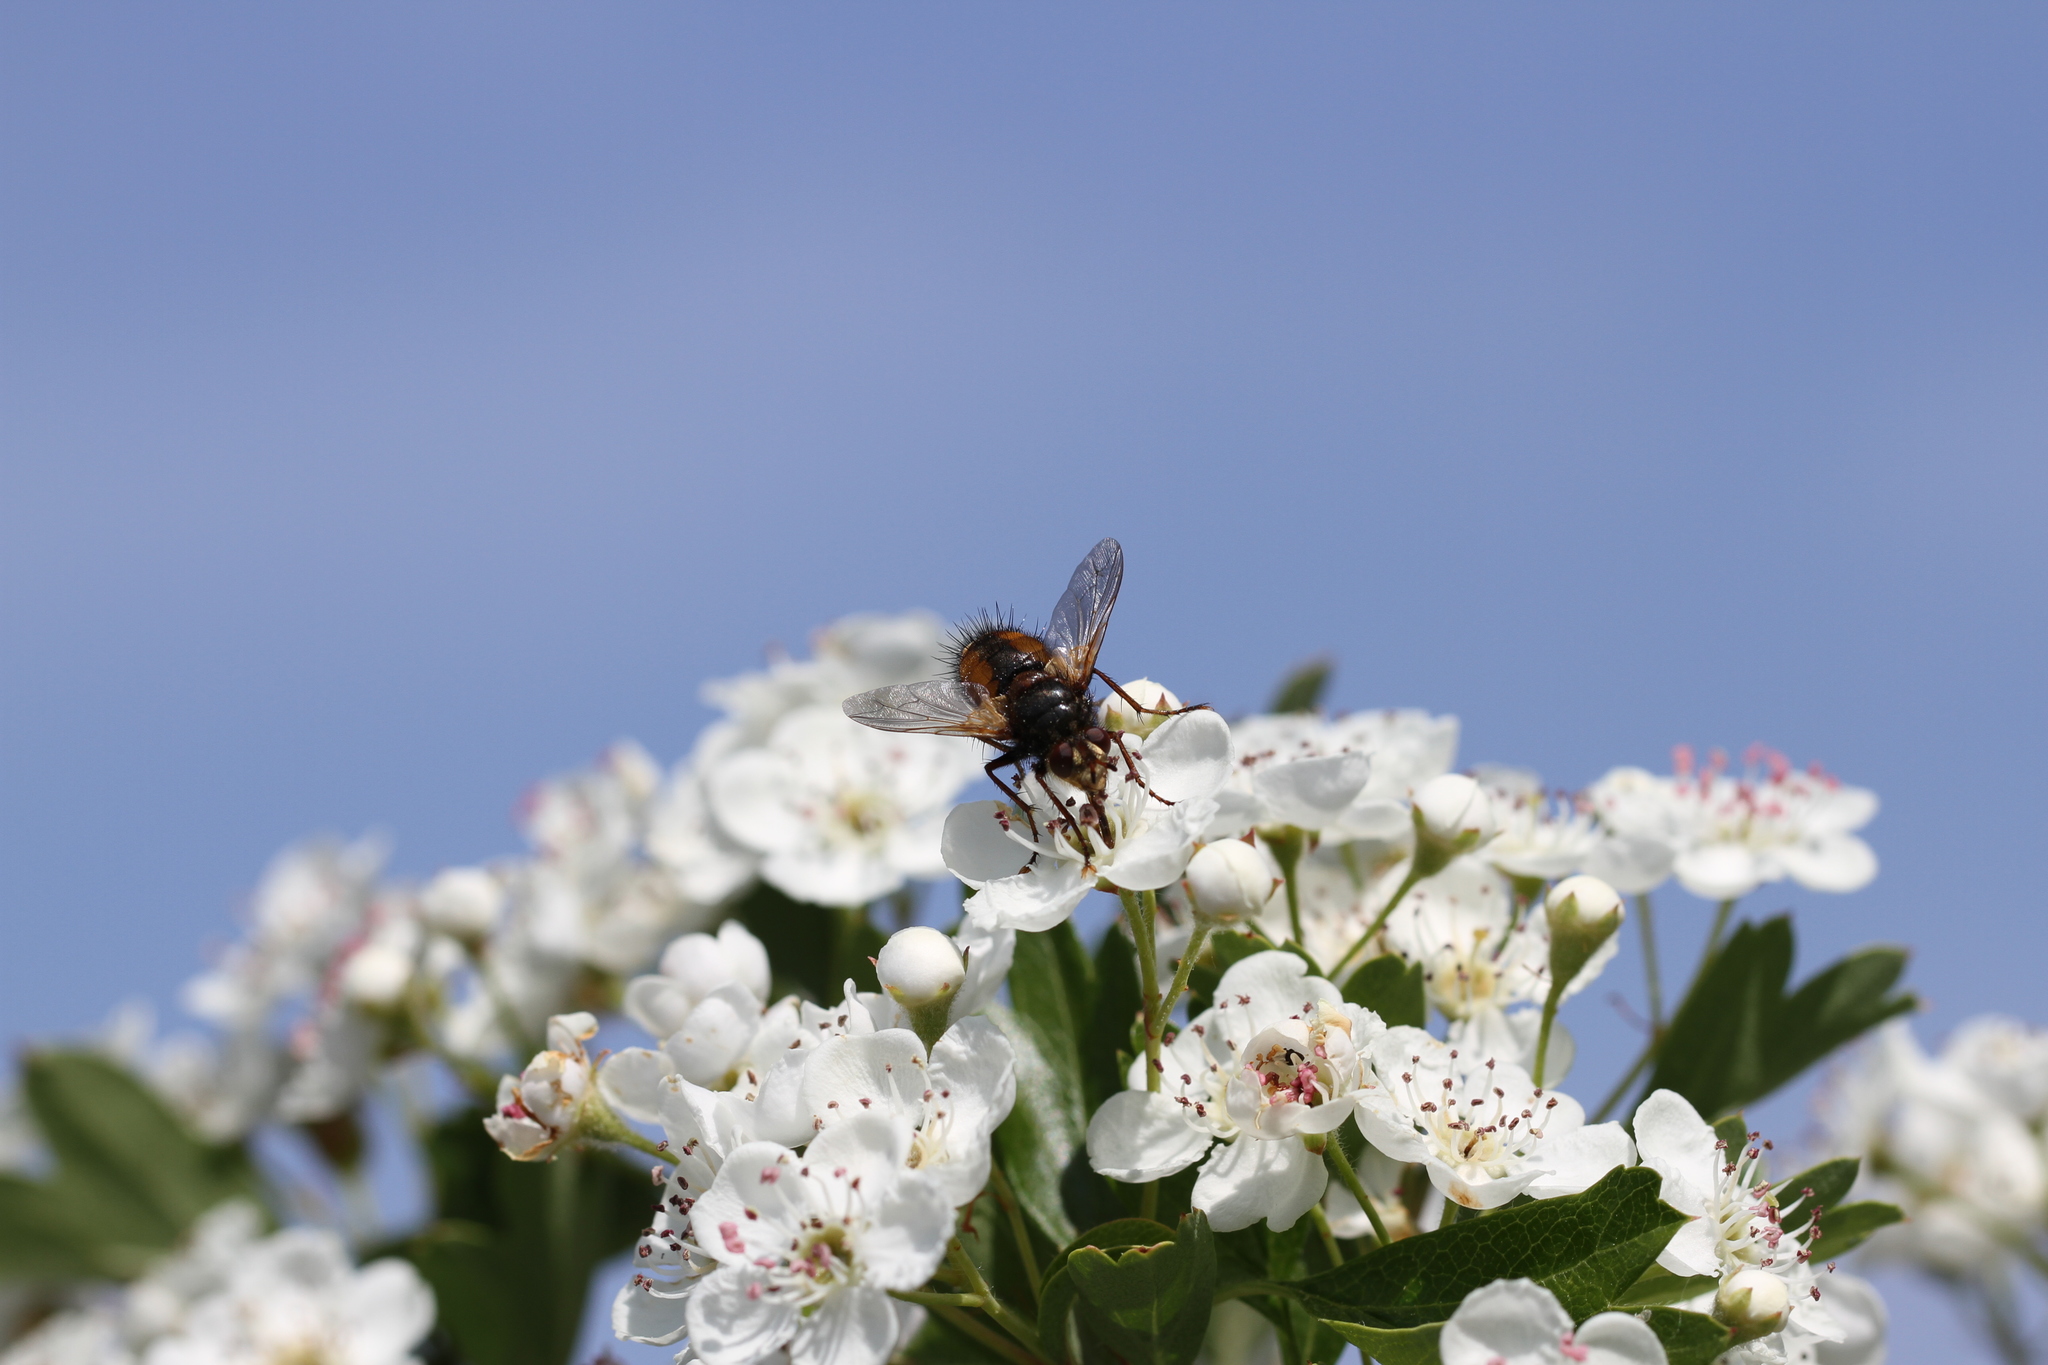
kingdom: Animalia
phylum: Arthropoda
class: Insecta
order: Diptera
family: Tachinidae
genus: Tachina
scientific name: Tachina fera
